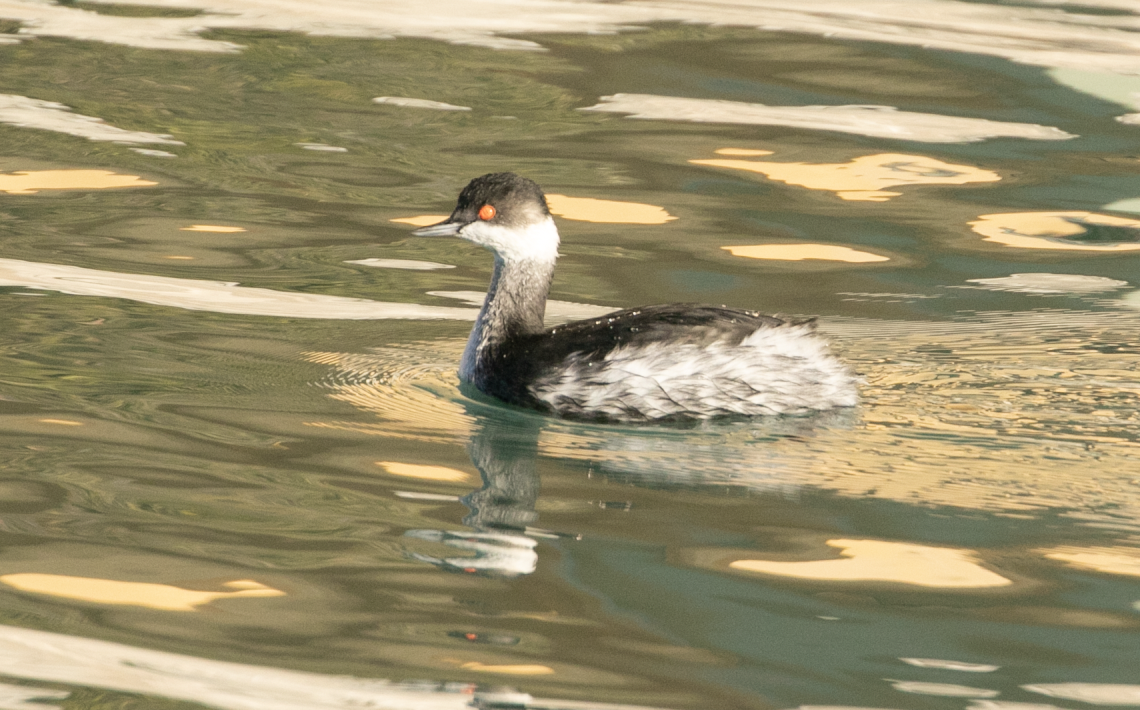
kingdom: Animalia
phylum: Chordata
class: Aves
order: Podicipediformes
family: Podicipedidae
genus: Podiceps
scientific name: Podiceps nigricollis
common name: Black-necked grebe
